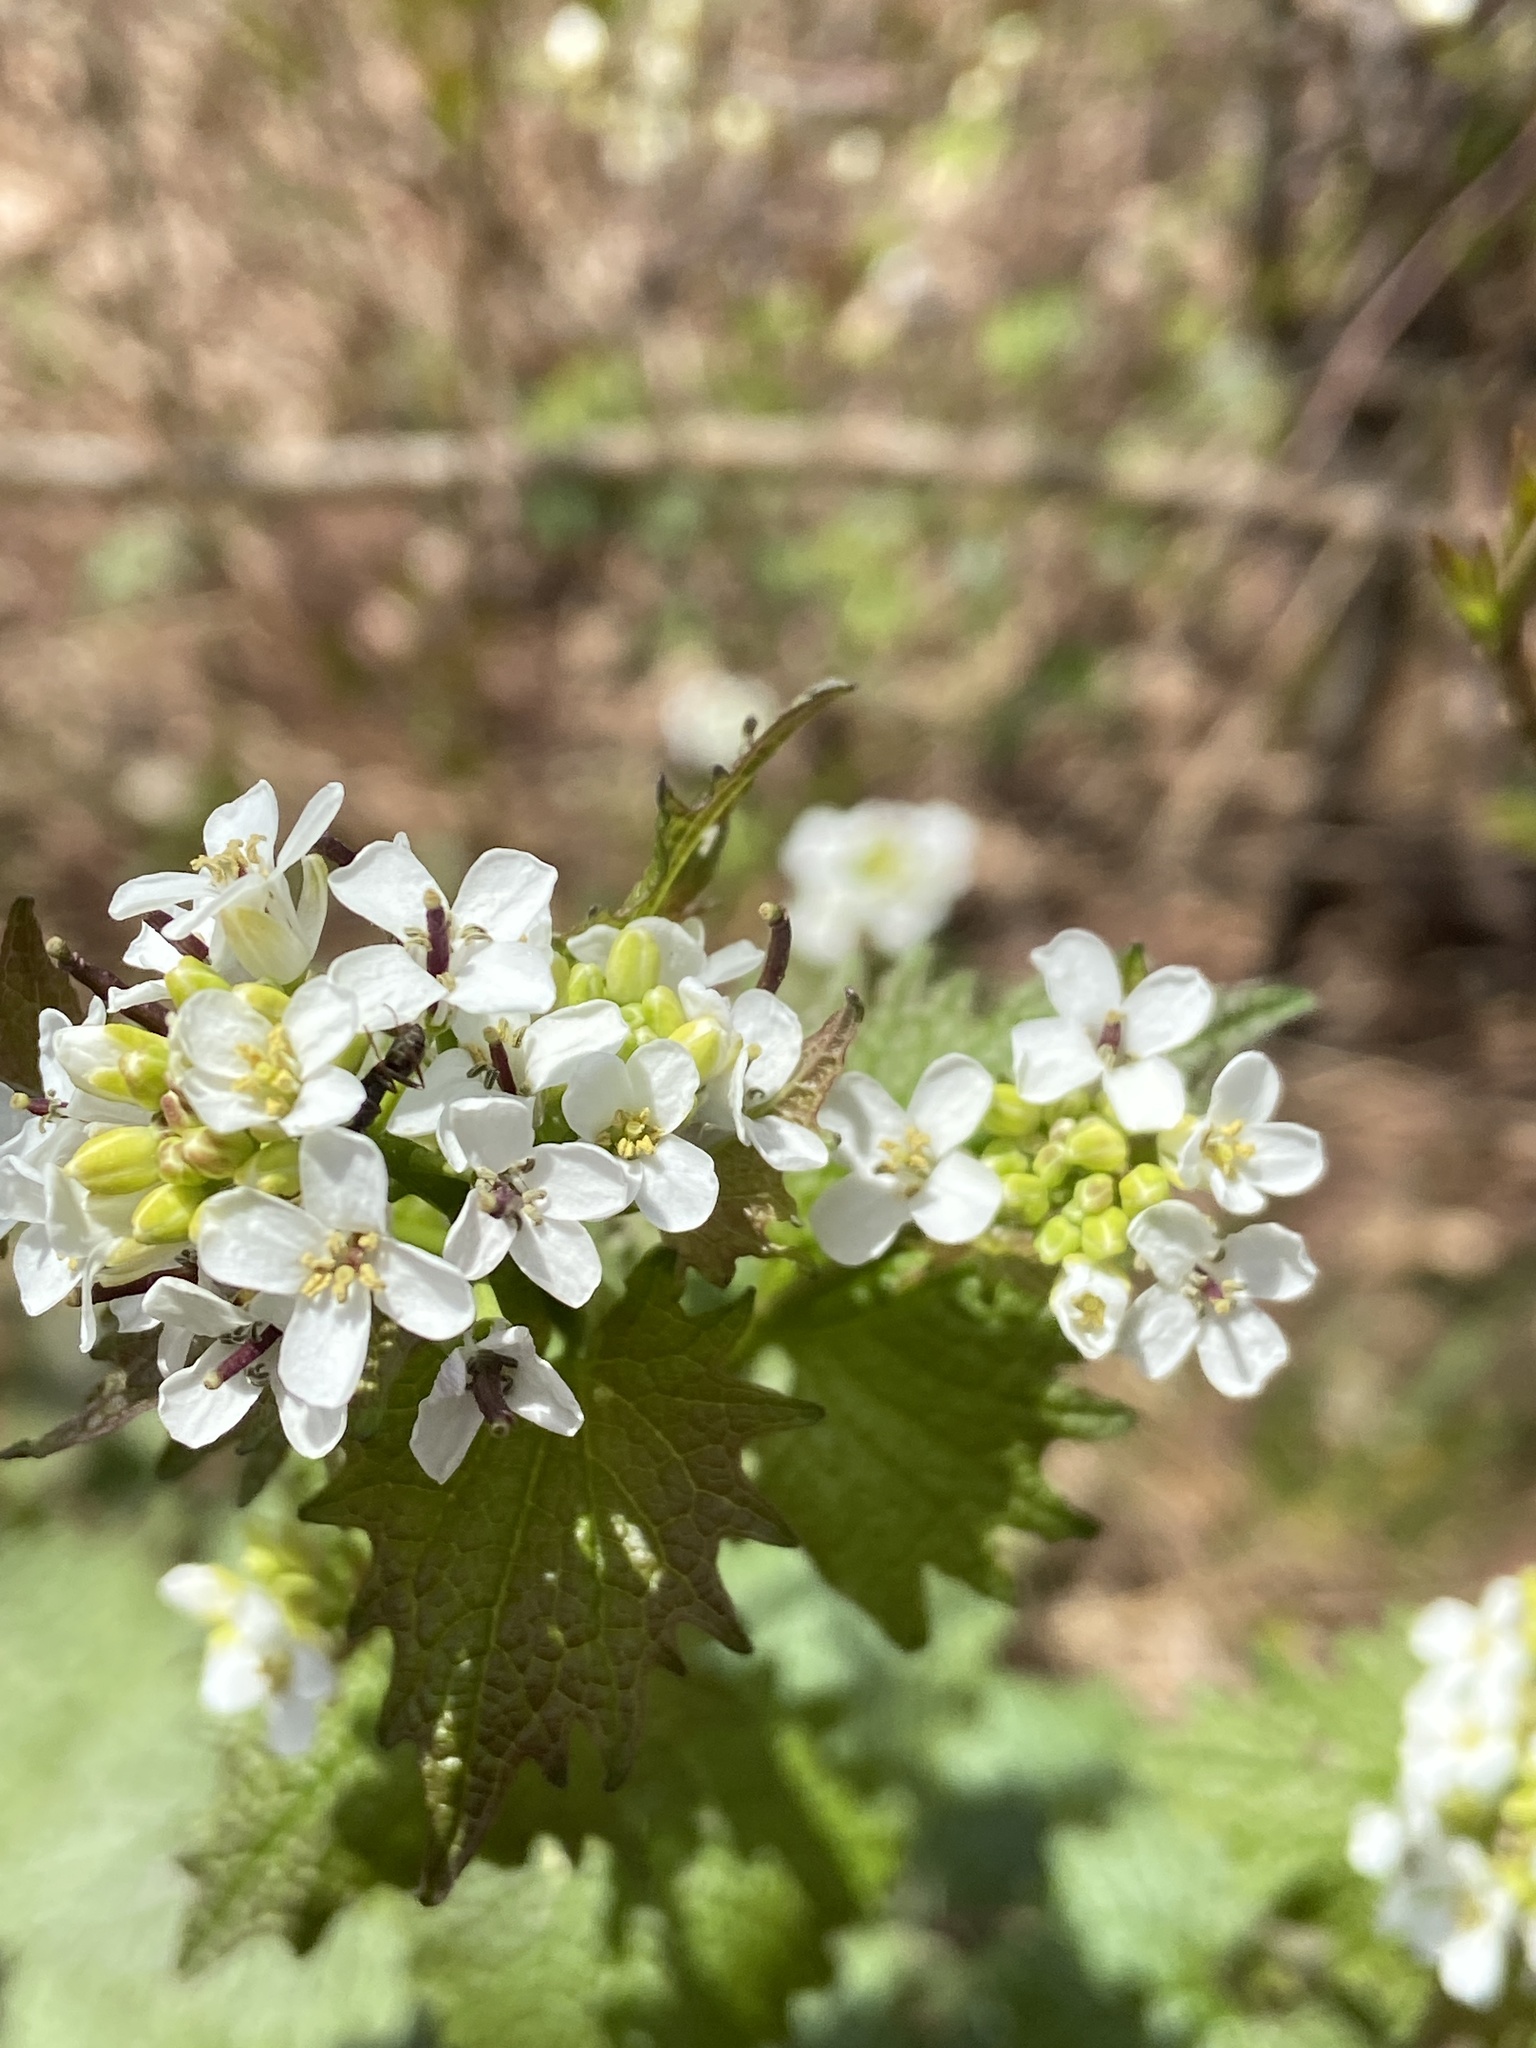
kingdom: Plantae
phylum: Tracheophyta
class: Magnoliopsida
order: Brassicales
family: Brassicaceae
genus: Alliaria
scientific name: Alliaria petiolata
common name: Garlic mustard
